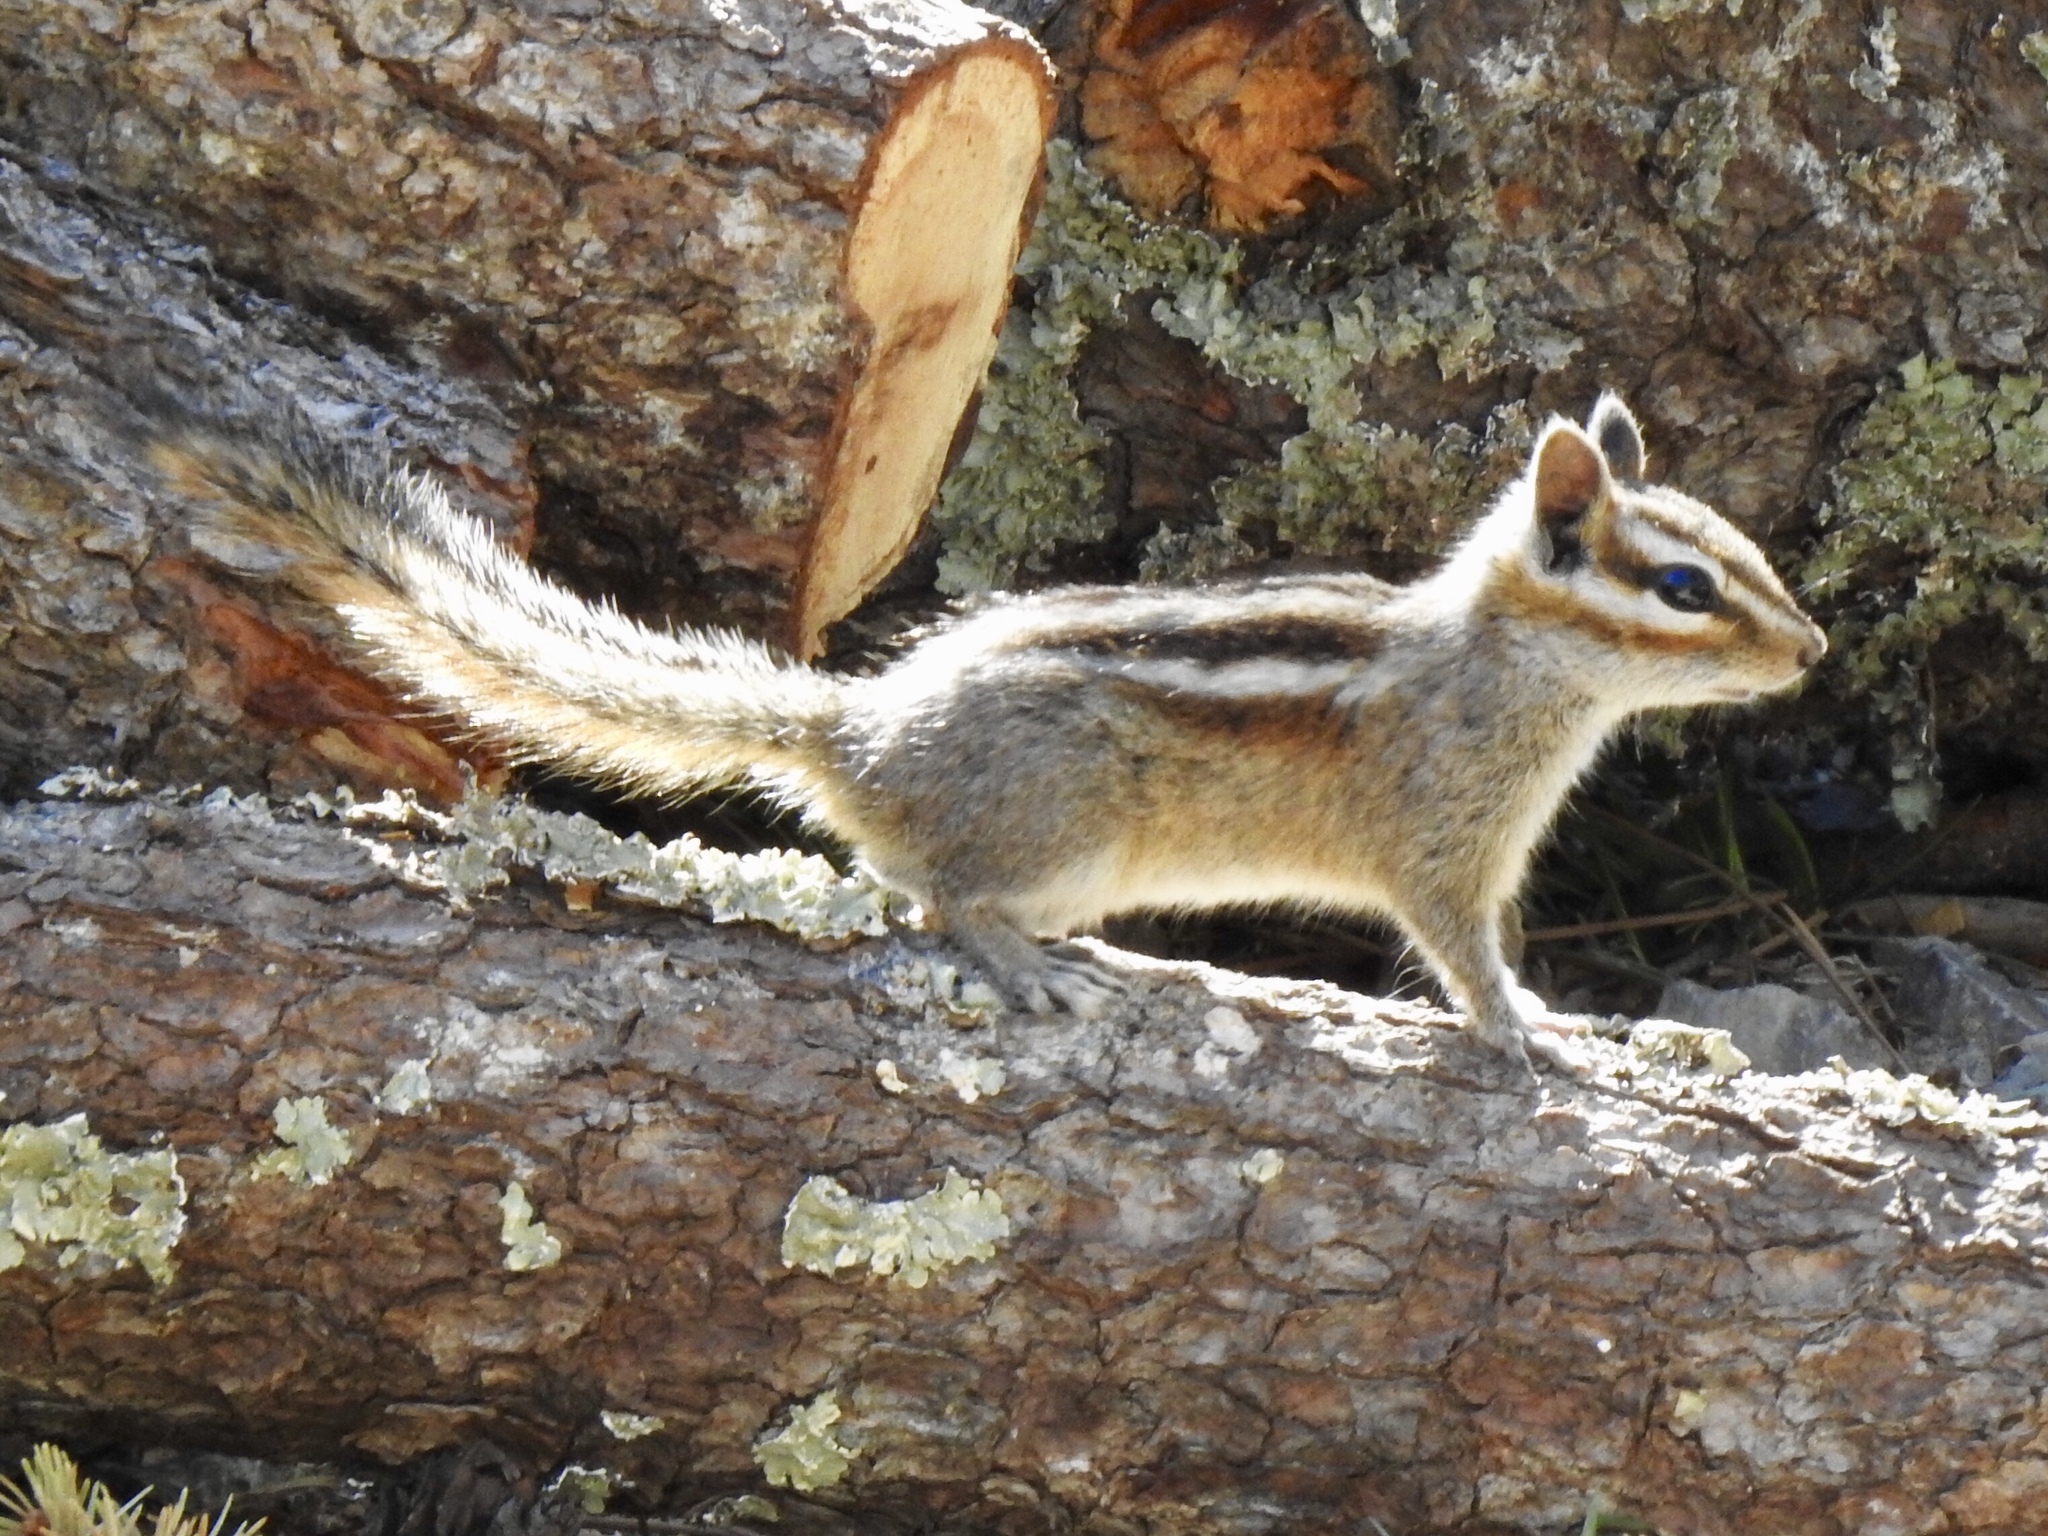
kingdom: Animalia
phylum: Chordata
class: Mammalia
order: Rodentia
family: Sciuridae
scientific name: Sciuridae
